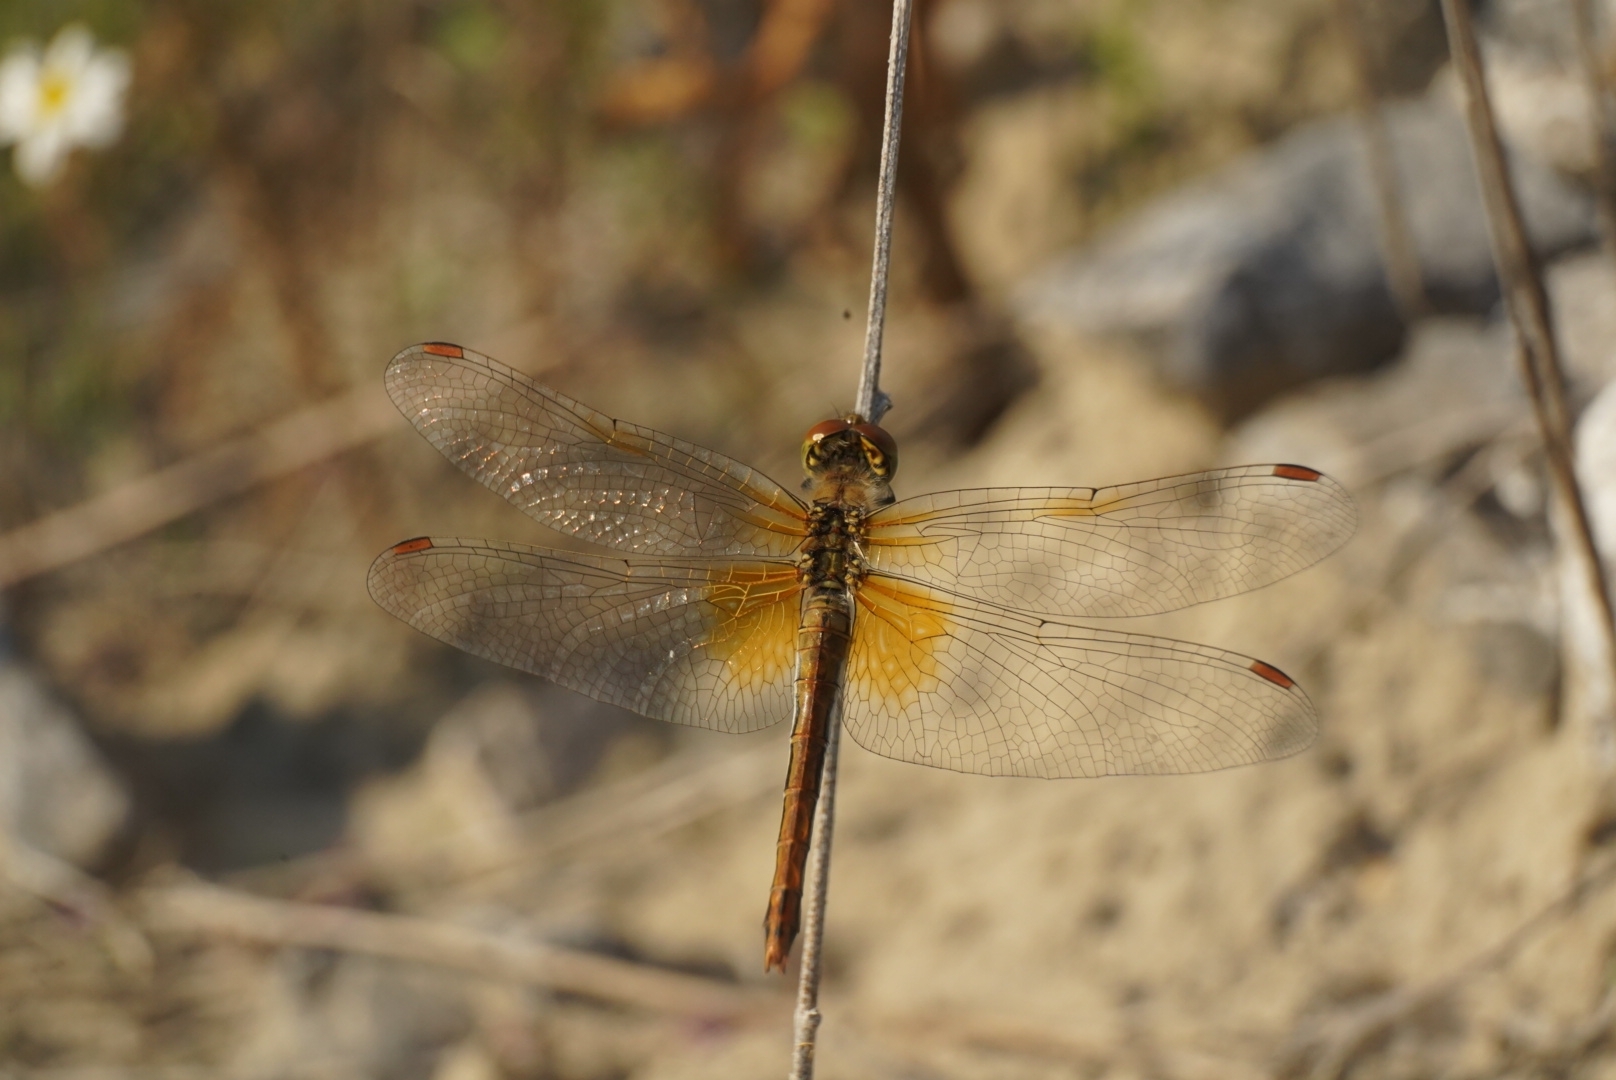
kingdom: Animalia
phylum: Arthropoda
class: Insecta
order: Odonata
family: Libellulidae
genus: Sympetrum
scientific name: Sympetrum flaveolum
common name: Yellow-winged darter
